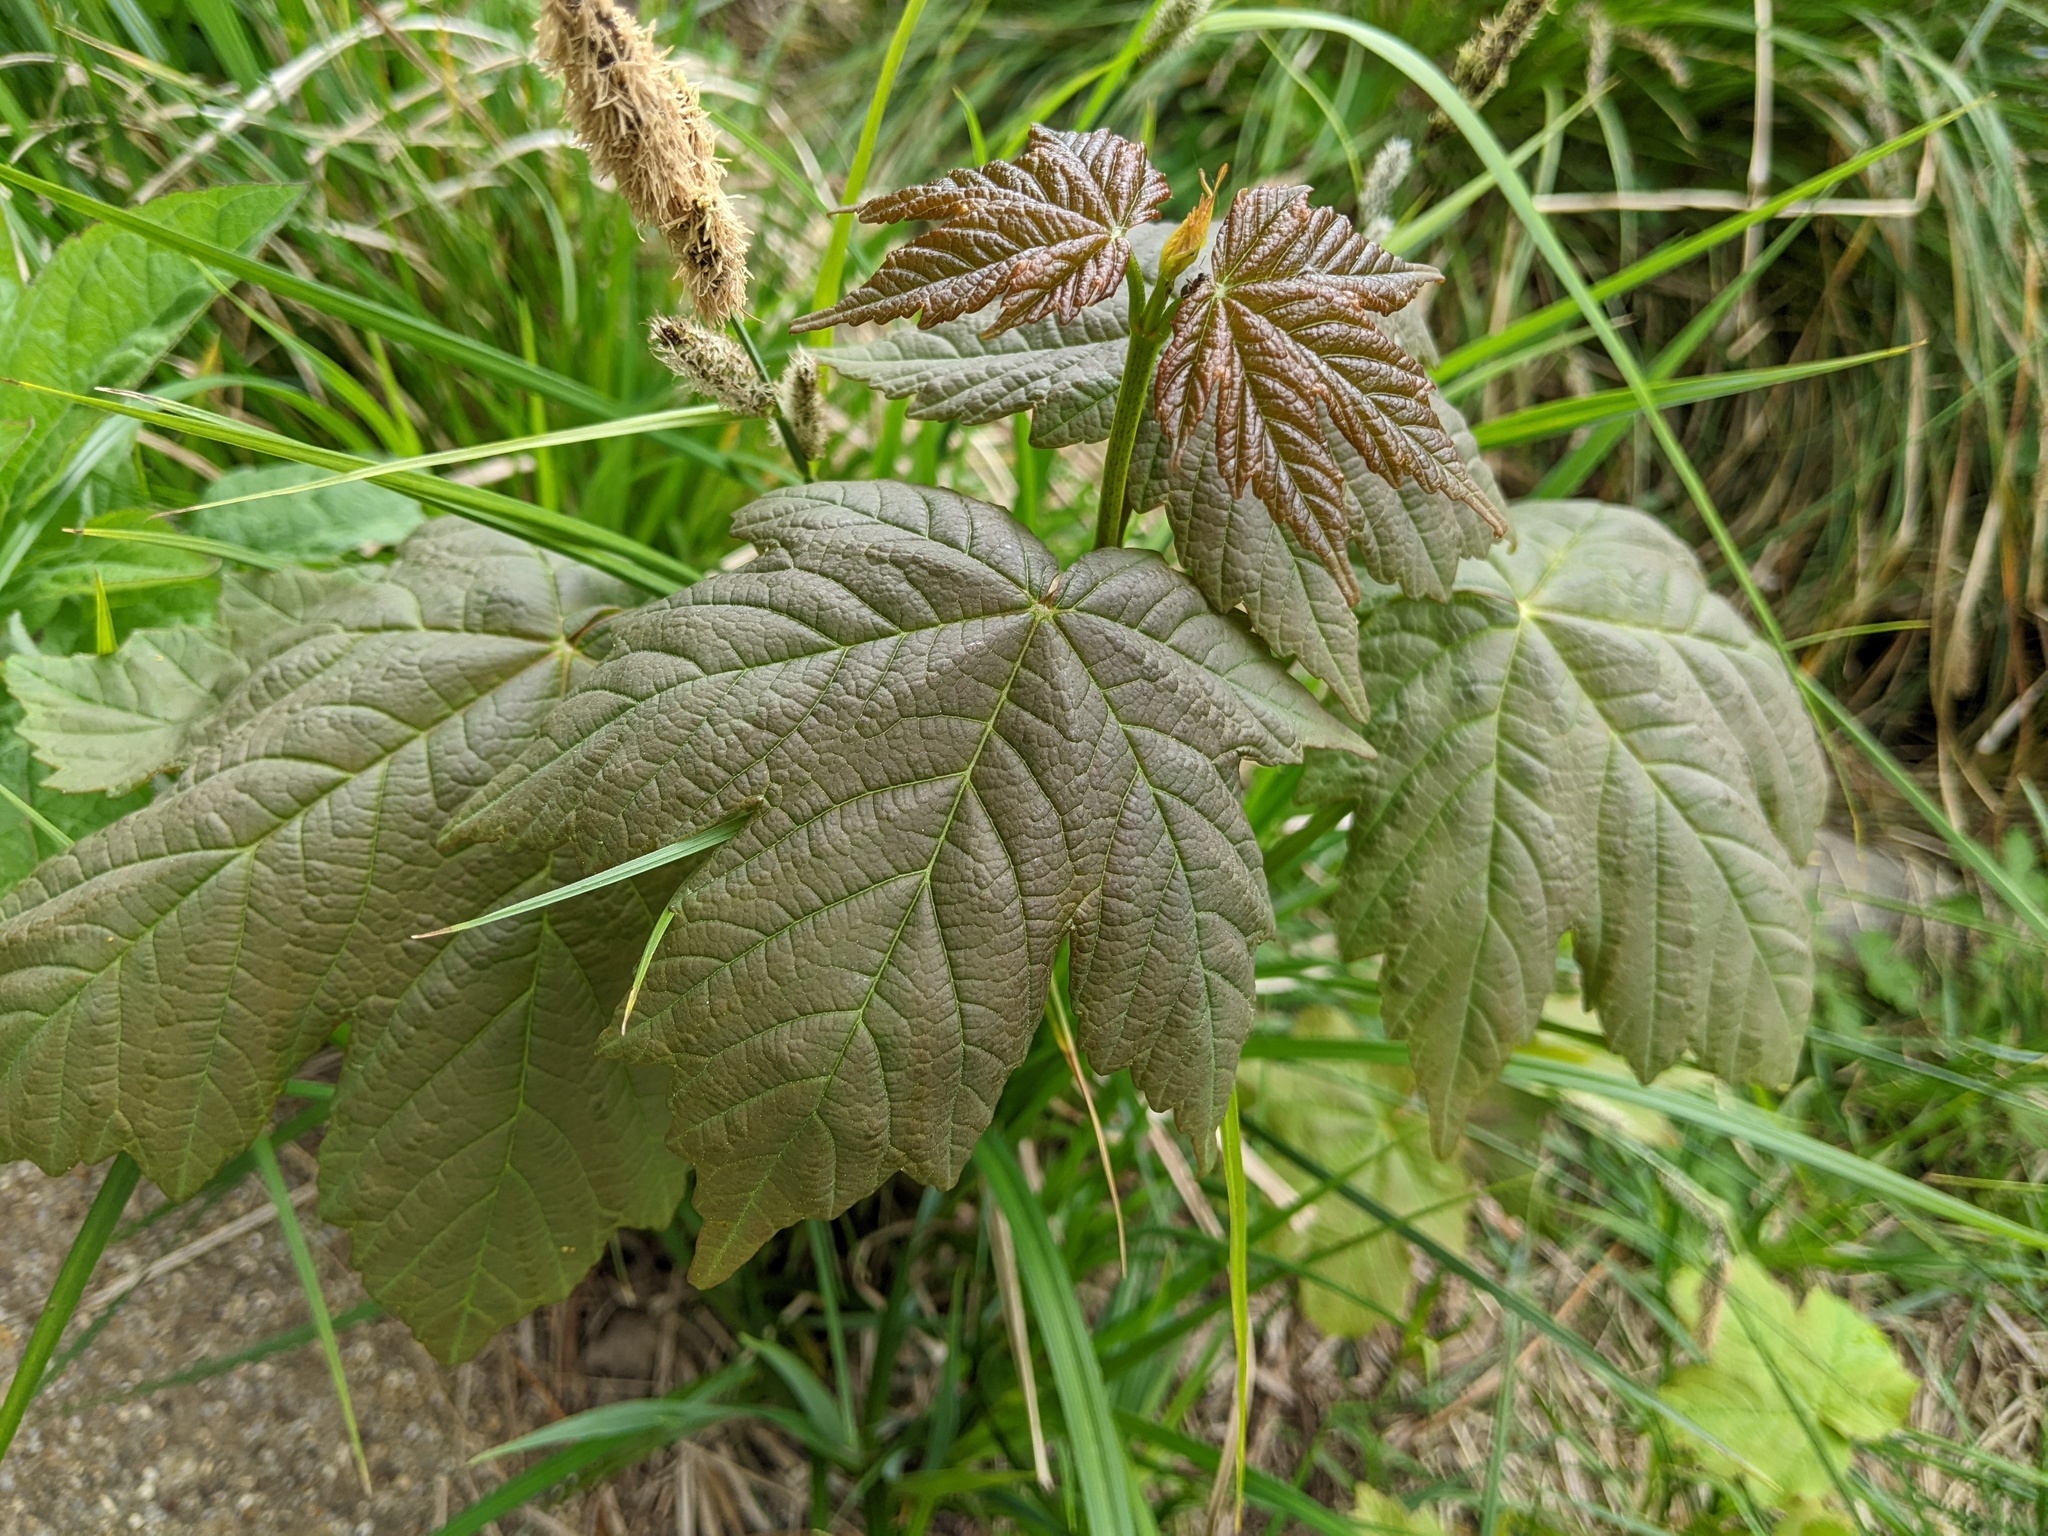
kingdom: Plantae
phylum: Tracheophyta
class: Magnoliopsida
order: Sapindales
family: Sapindaceae
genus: Acer
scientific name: Acer pseudoplatanus
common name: Sycamore
